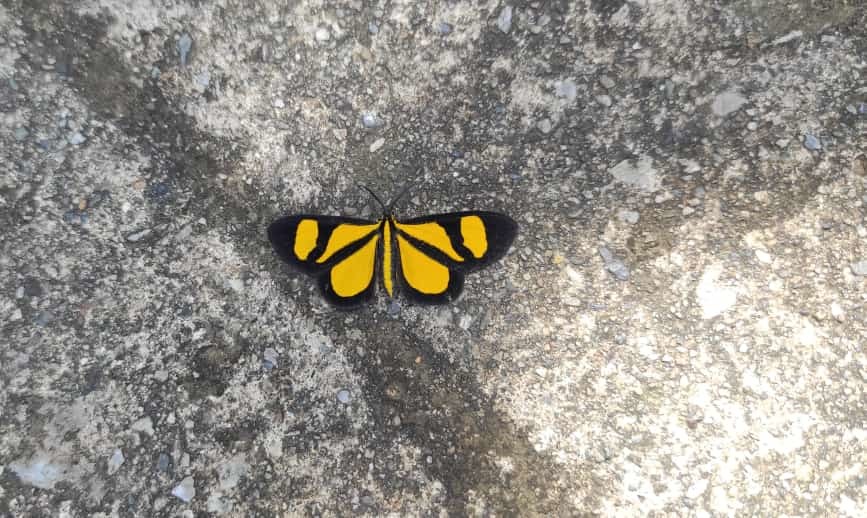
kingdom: Animalia
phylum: Arthropoda
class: Insecta
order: Lepidoptera
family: Geometridae
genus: Smicropus
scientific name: Smicropus laeta
